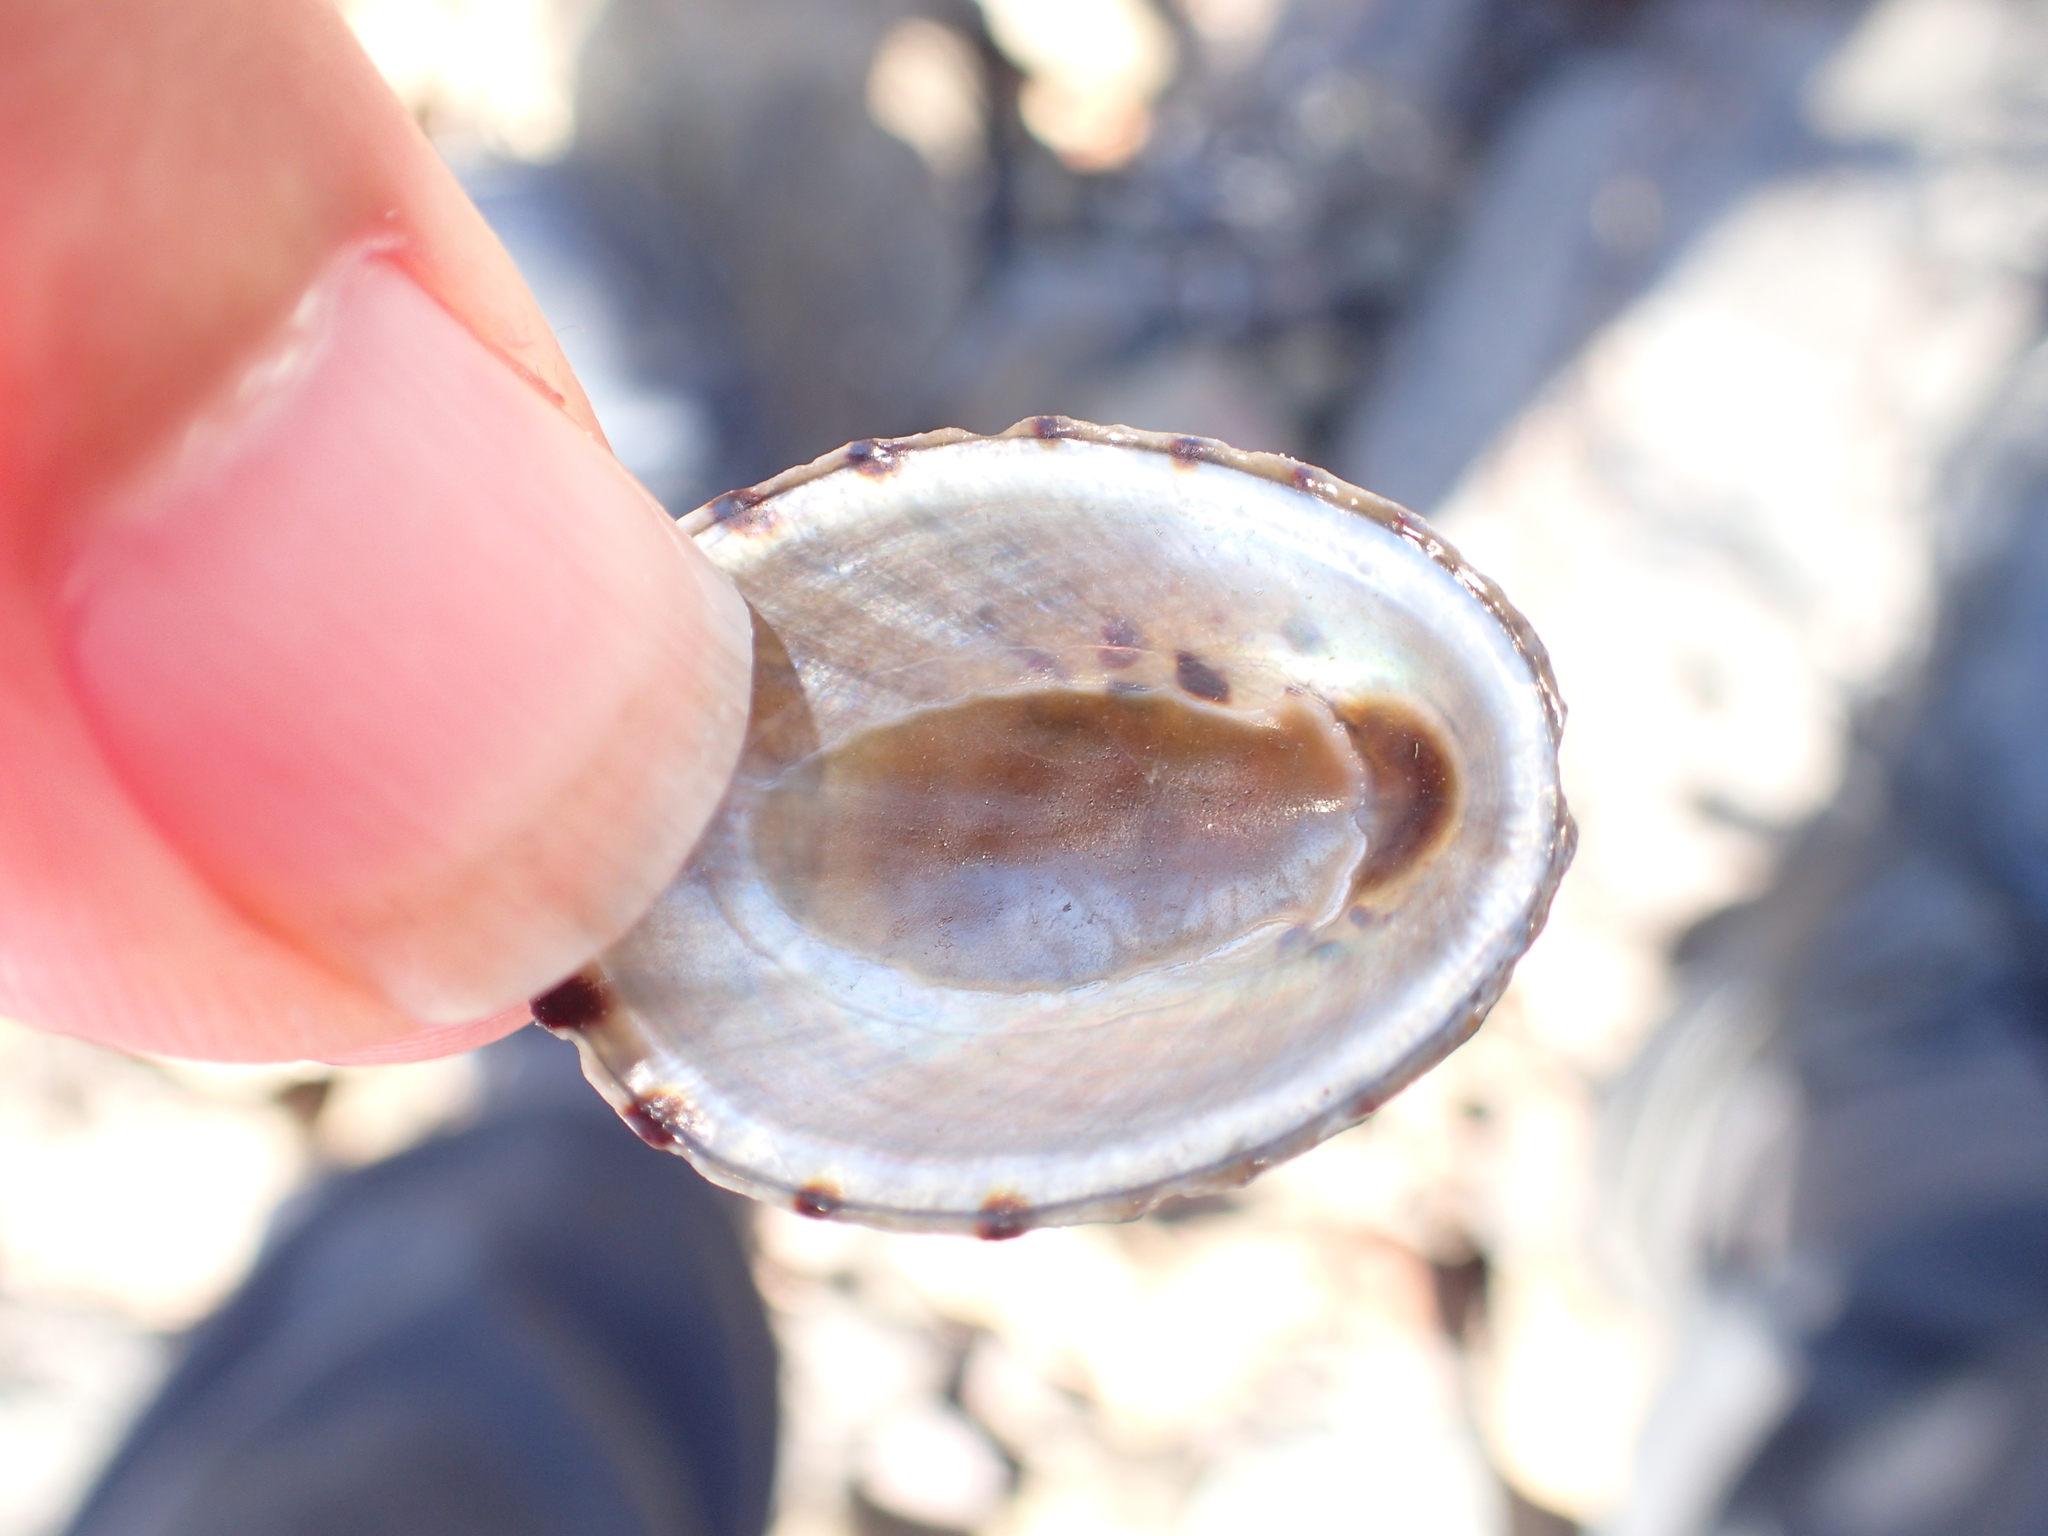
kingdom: Animalia
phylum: Mollusca
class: Gastropoda
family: Nacellidae
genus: Cellana
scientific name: Cellana radians
